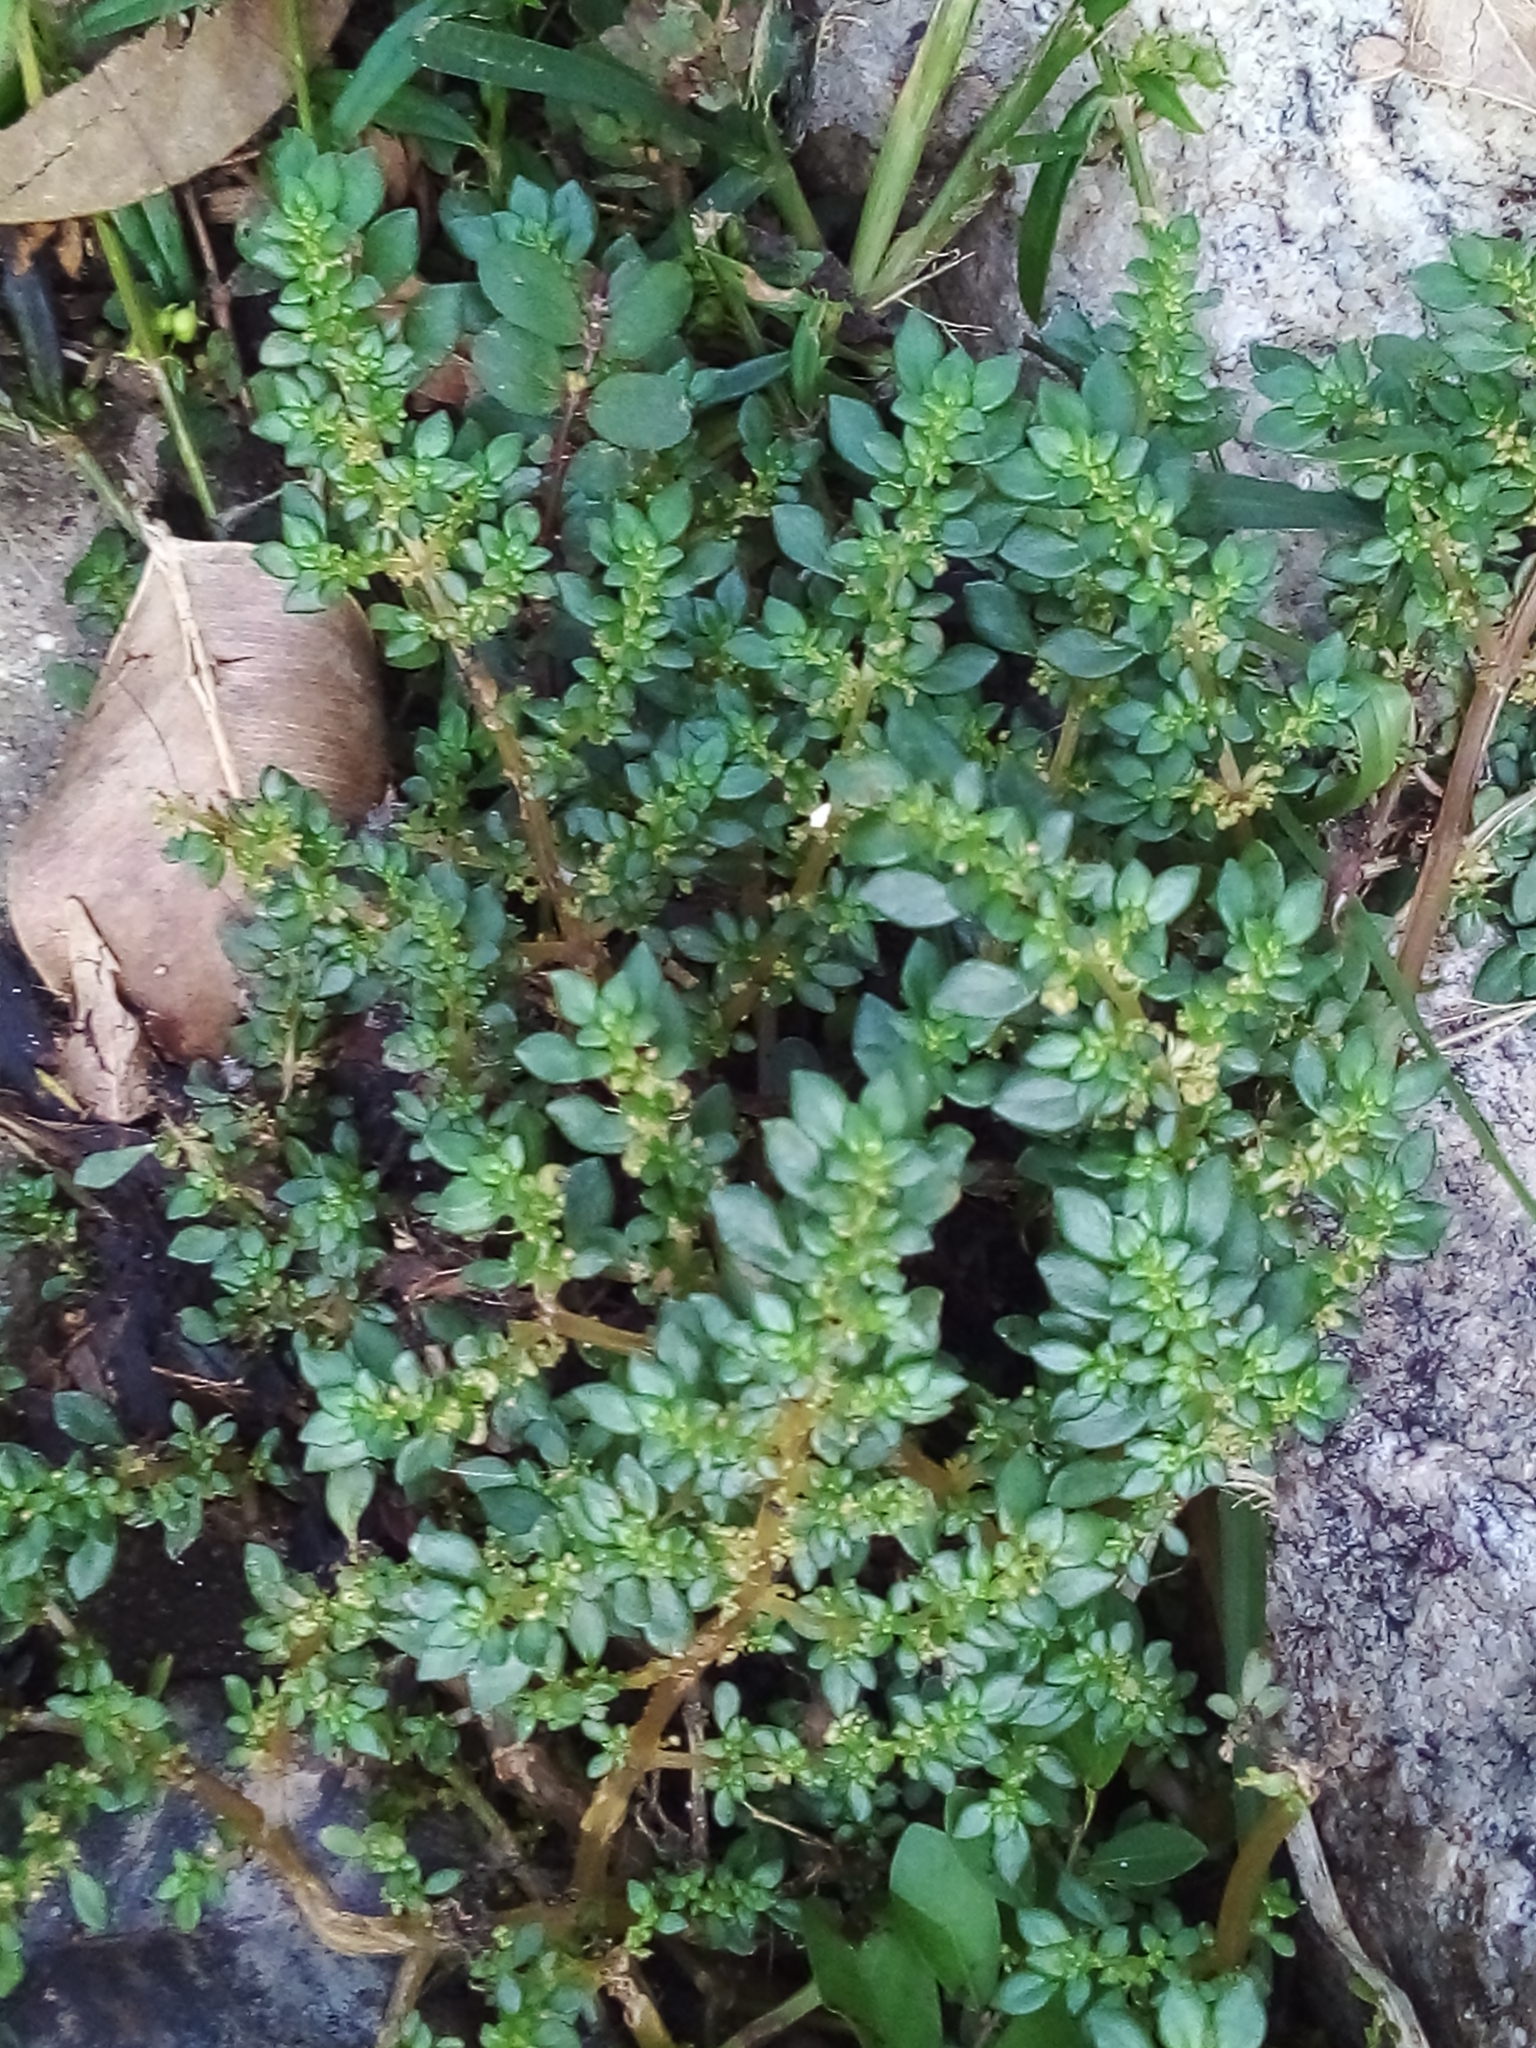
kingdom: Plantae
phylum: Tracheophyta
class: Magnoliopsida
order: Rosales
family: Urticaceae
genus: Pilea
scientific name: Pilea microphylla
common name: Artillery-plant
